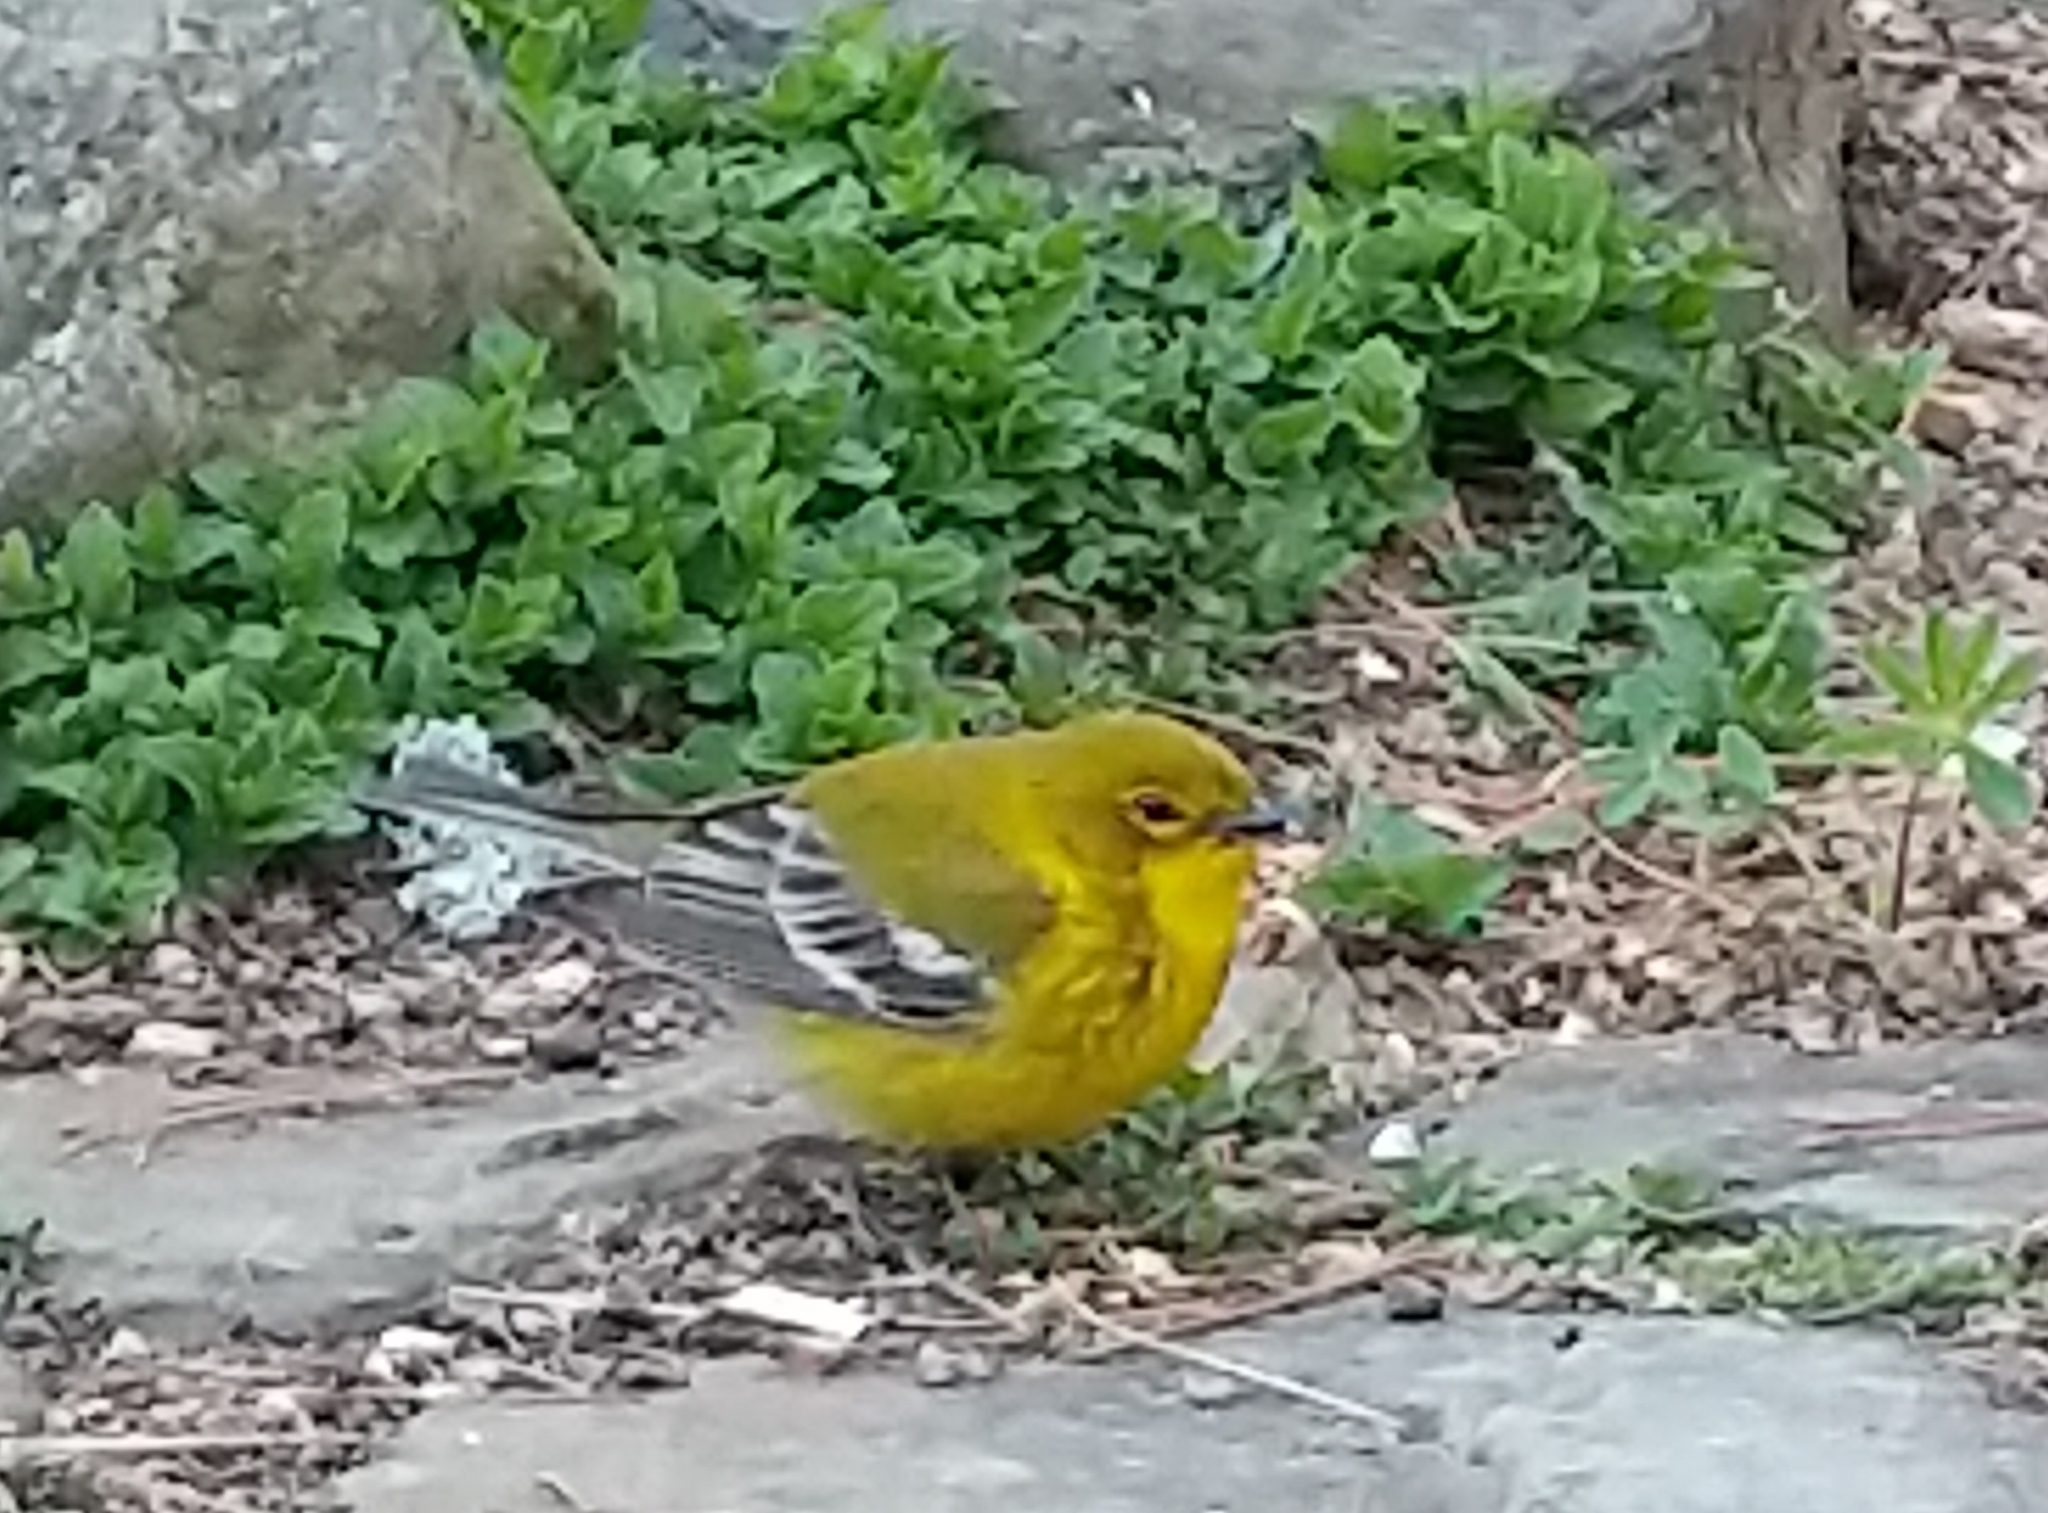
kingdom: Animalia
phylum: Chordata
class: Aves
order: Passeriformes
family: Parulidae
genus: Setophaga
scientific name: Setophaga pinus
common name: Pine warbler
